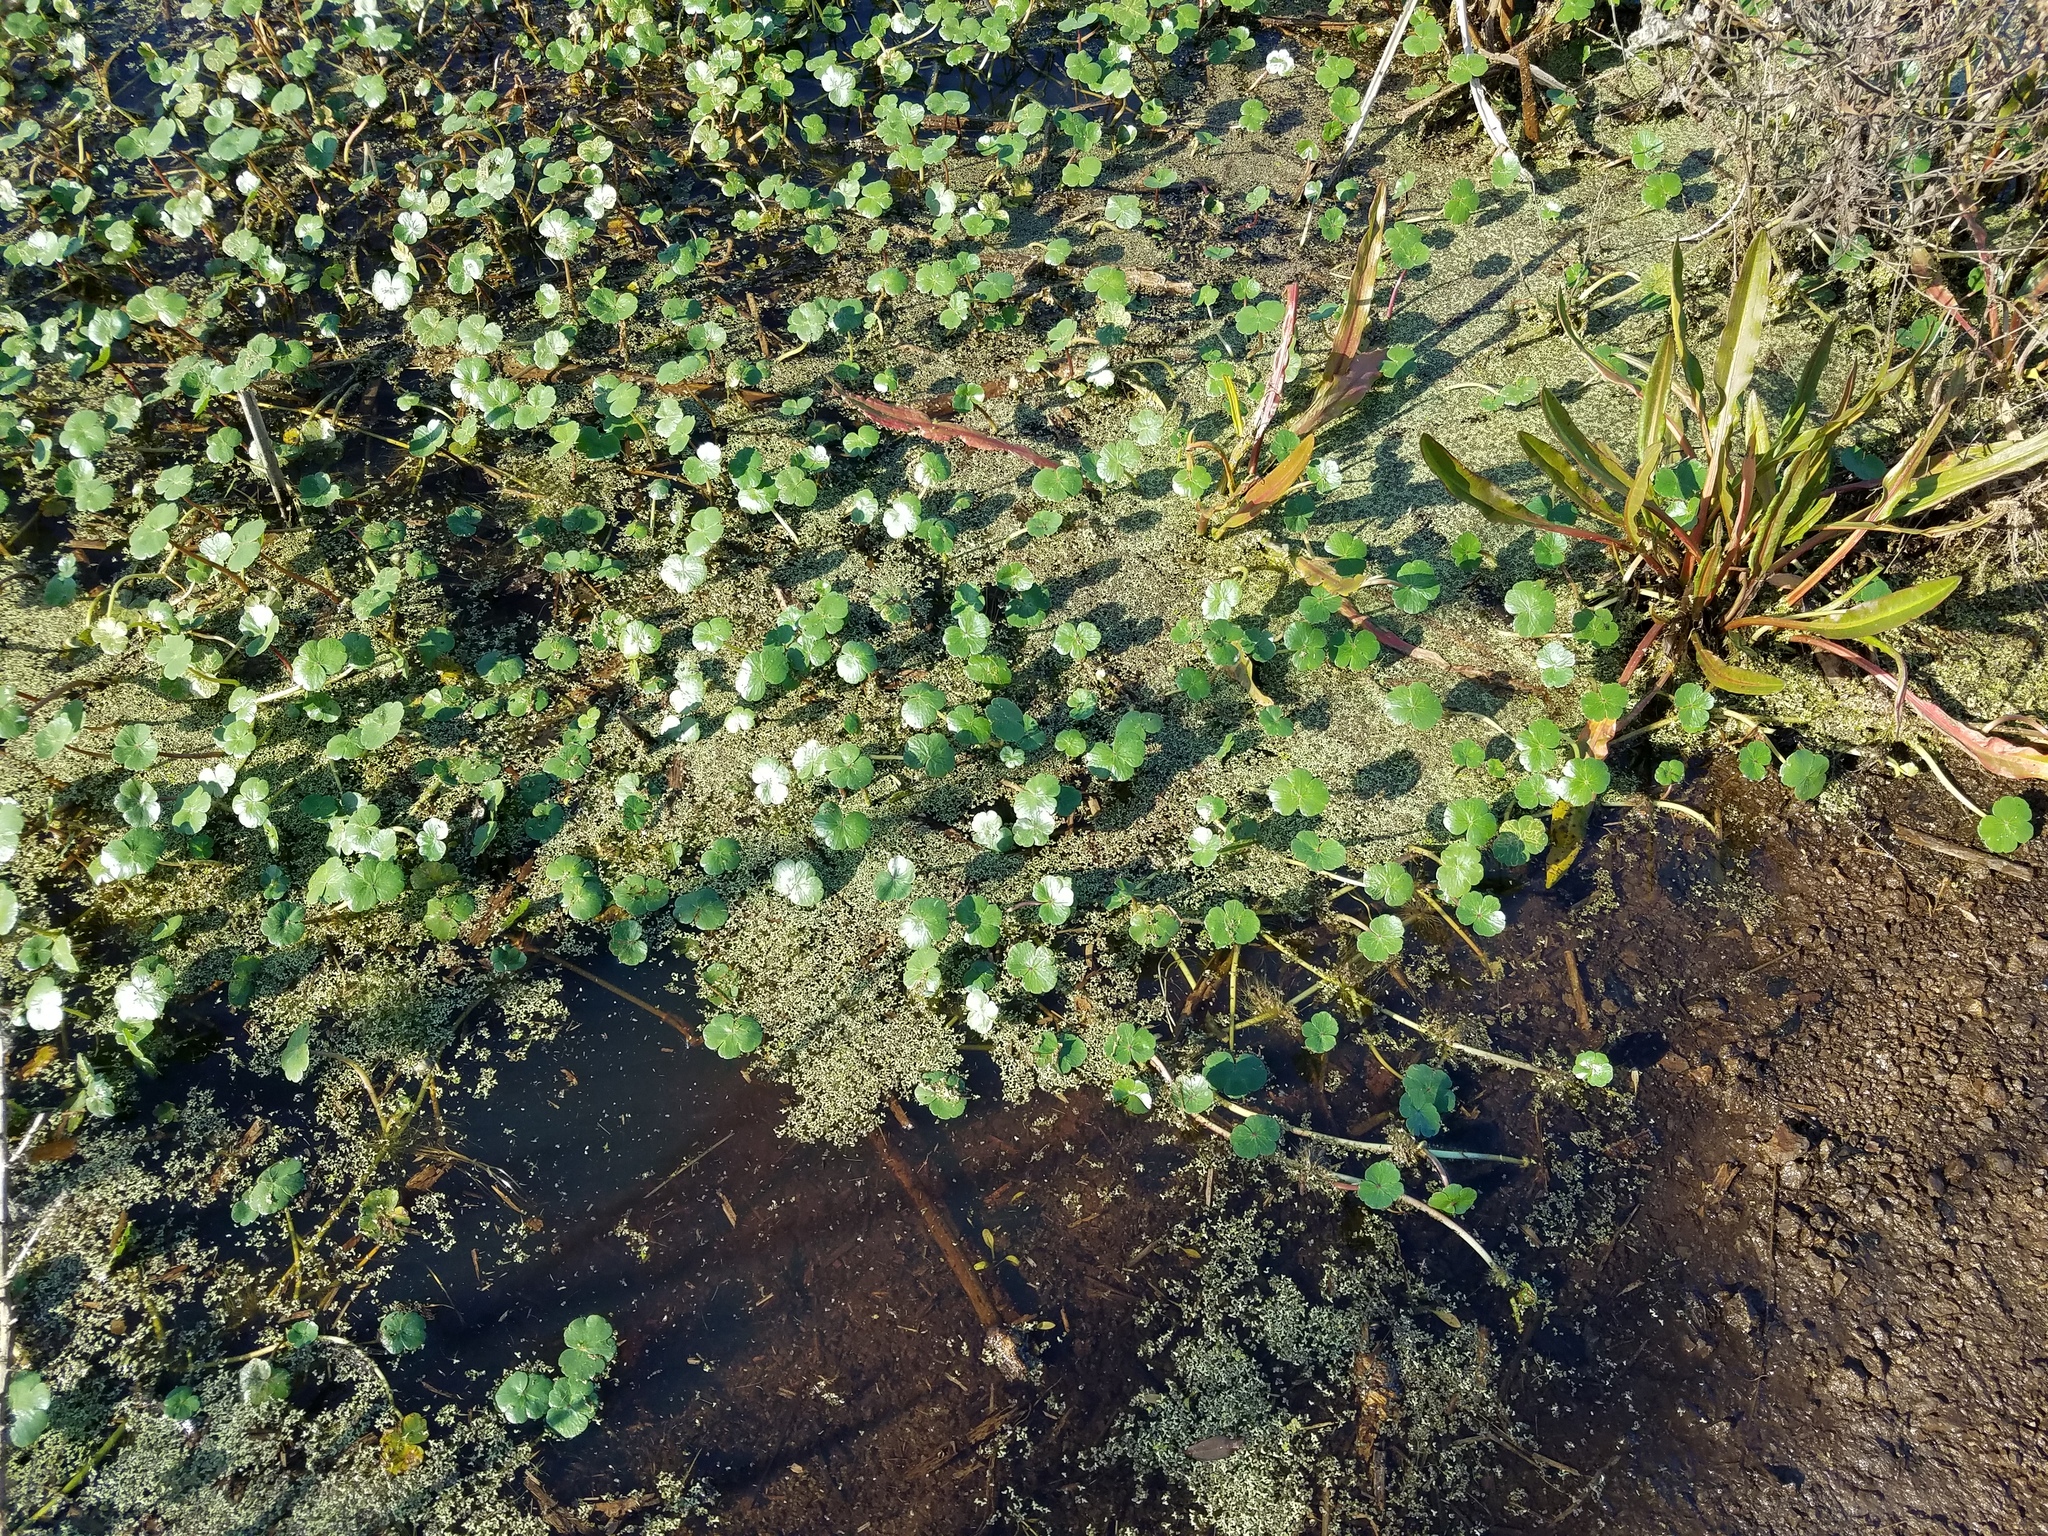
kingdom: Plantae
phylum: Tracheophyta
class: Magnoliopsida
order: Apiales
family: Araliaceae
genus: Hydrocotyle
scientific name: Hydrocotyle ranunculoides
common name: Floating pennywort
